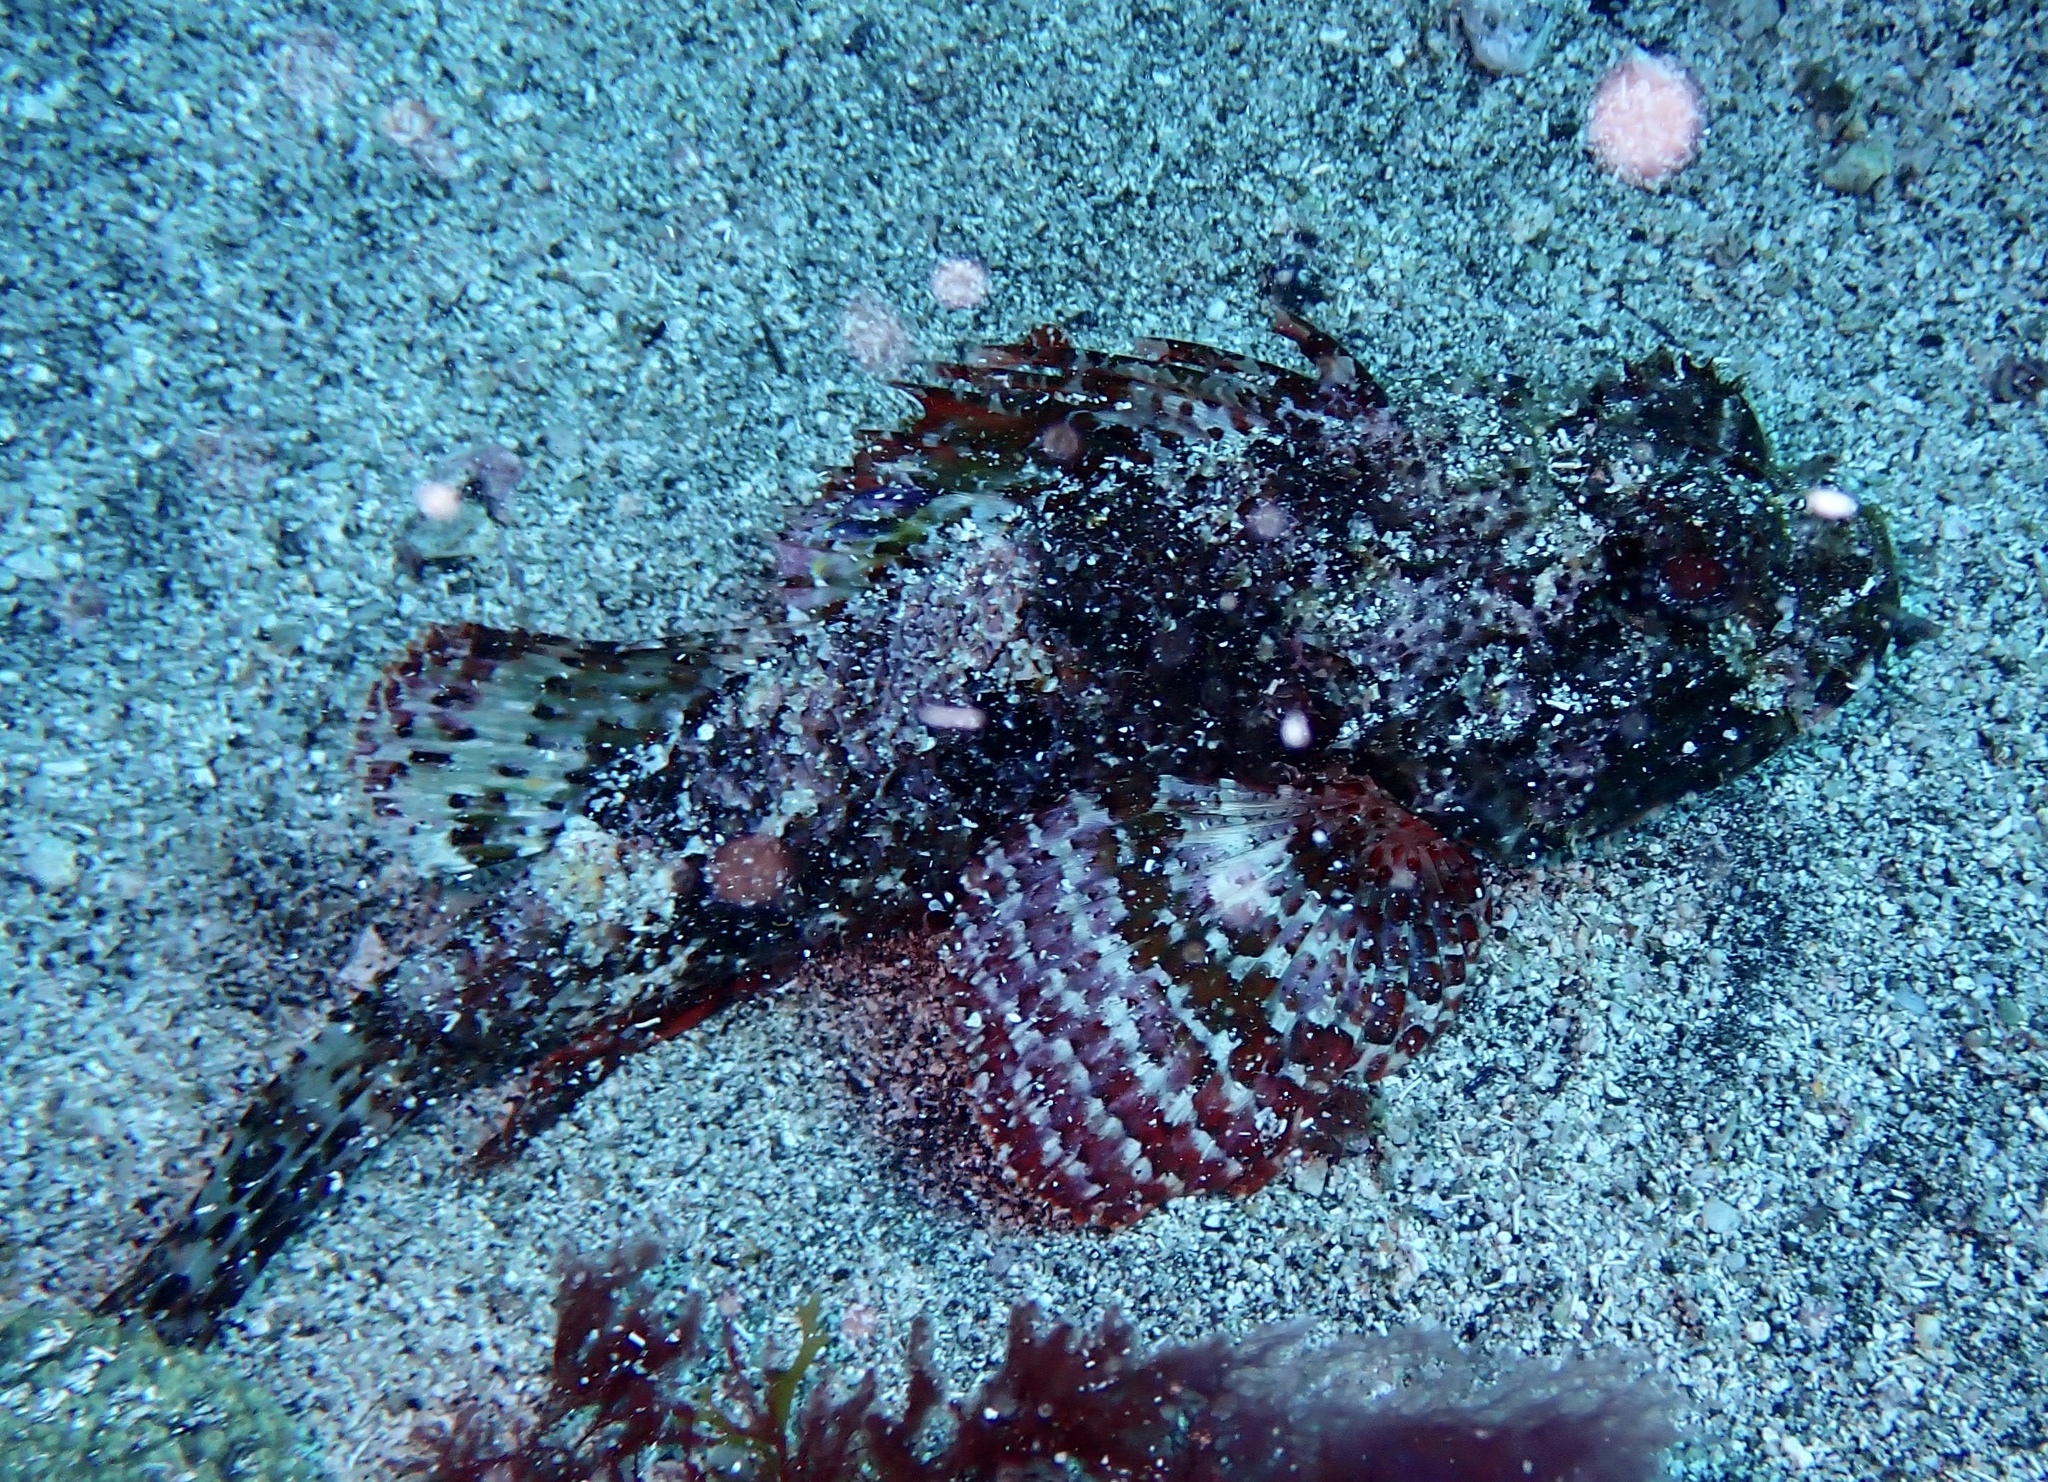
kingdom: Animalia
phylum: Chordata
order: Scorpaeniformes
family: Scorpaenidae
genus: Scorpaena
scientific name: Scorpaena laevis
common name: Senegalese rockfish
